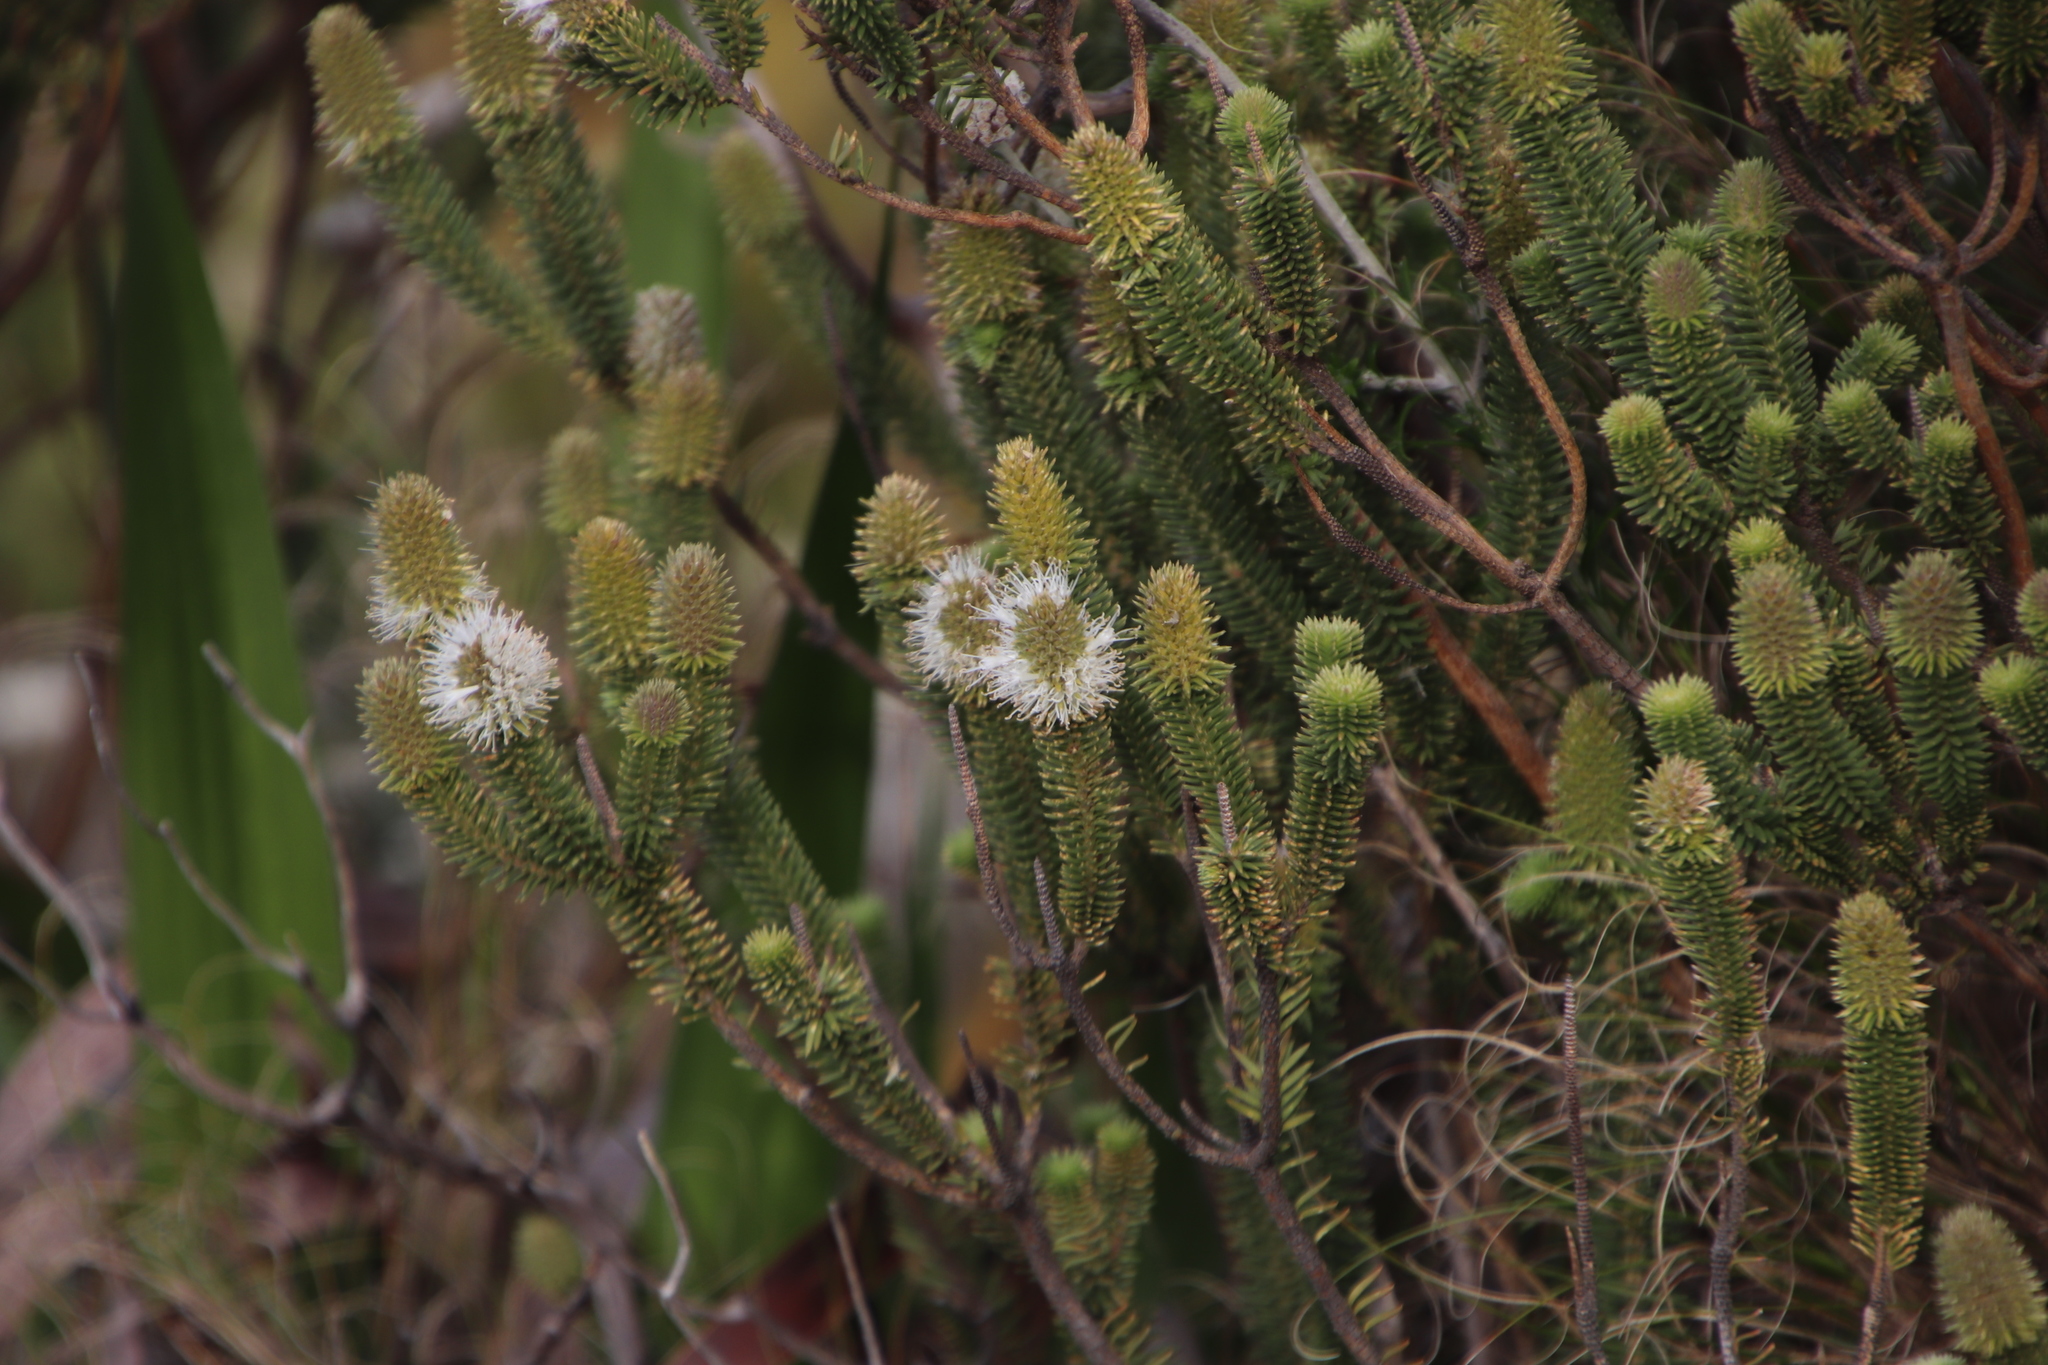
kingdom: Plantae
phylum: Tracheophyta
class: Magnoliopsida
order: Lamiales
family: Stilbaceae
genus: Stilbe
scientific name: Stilbe vestita
